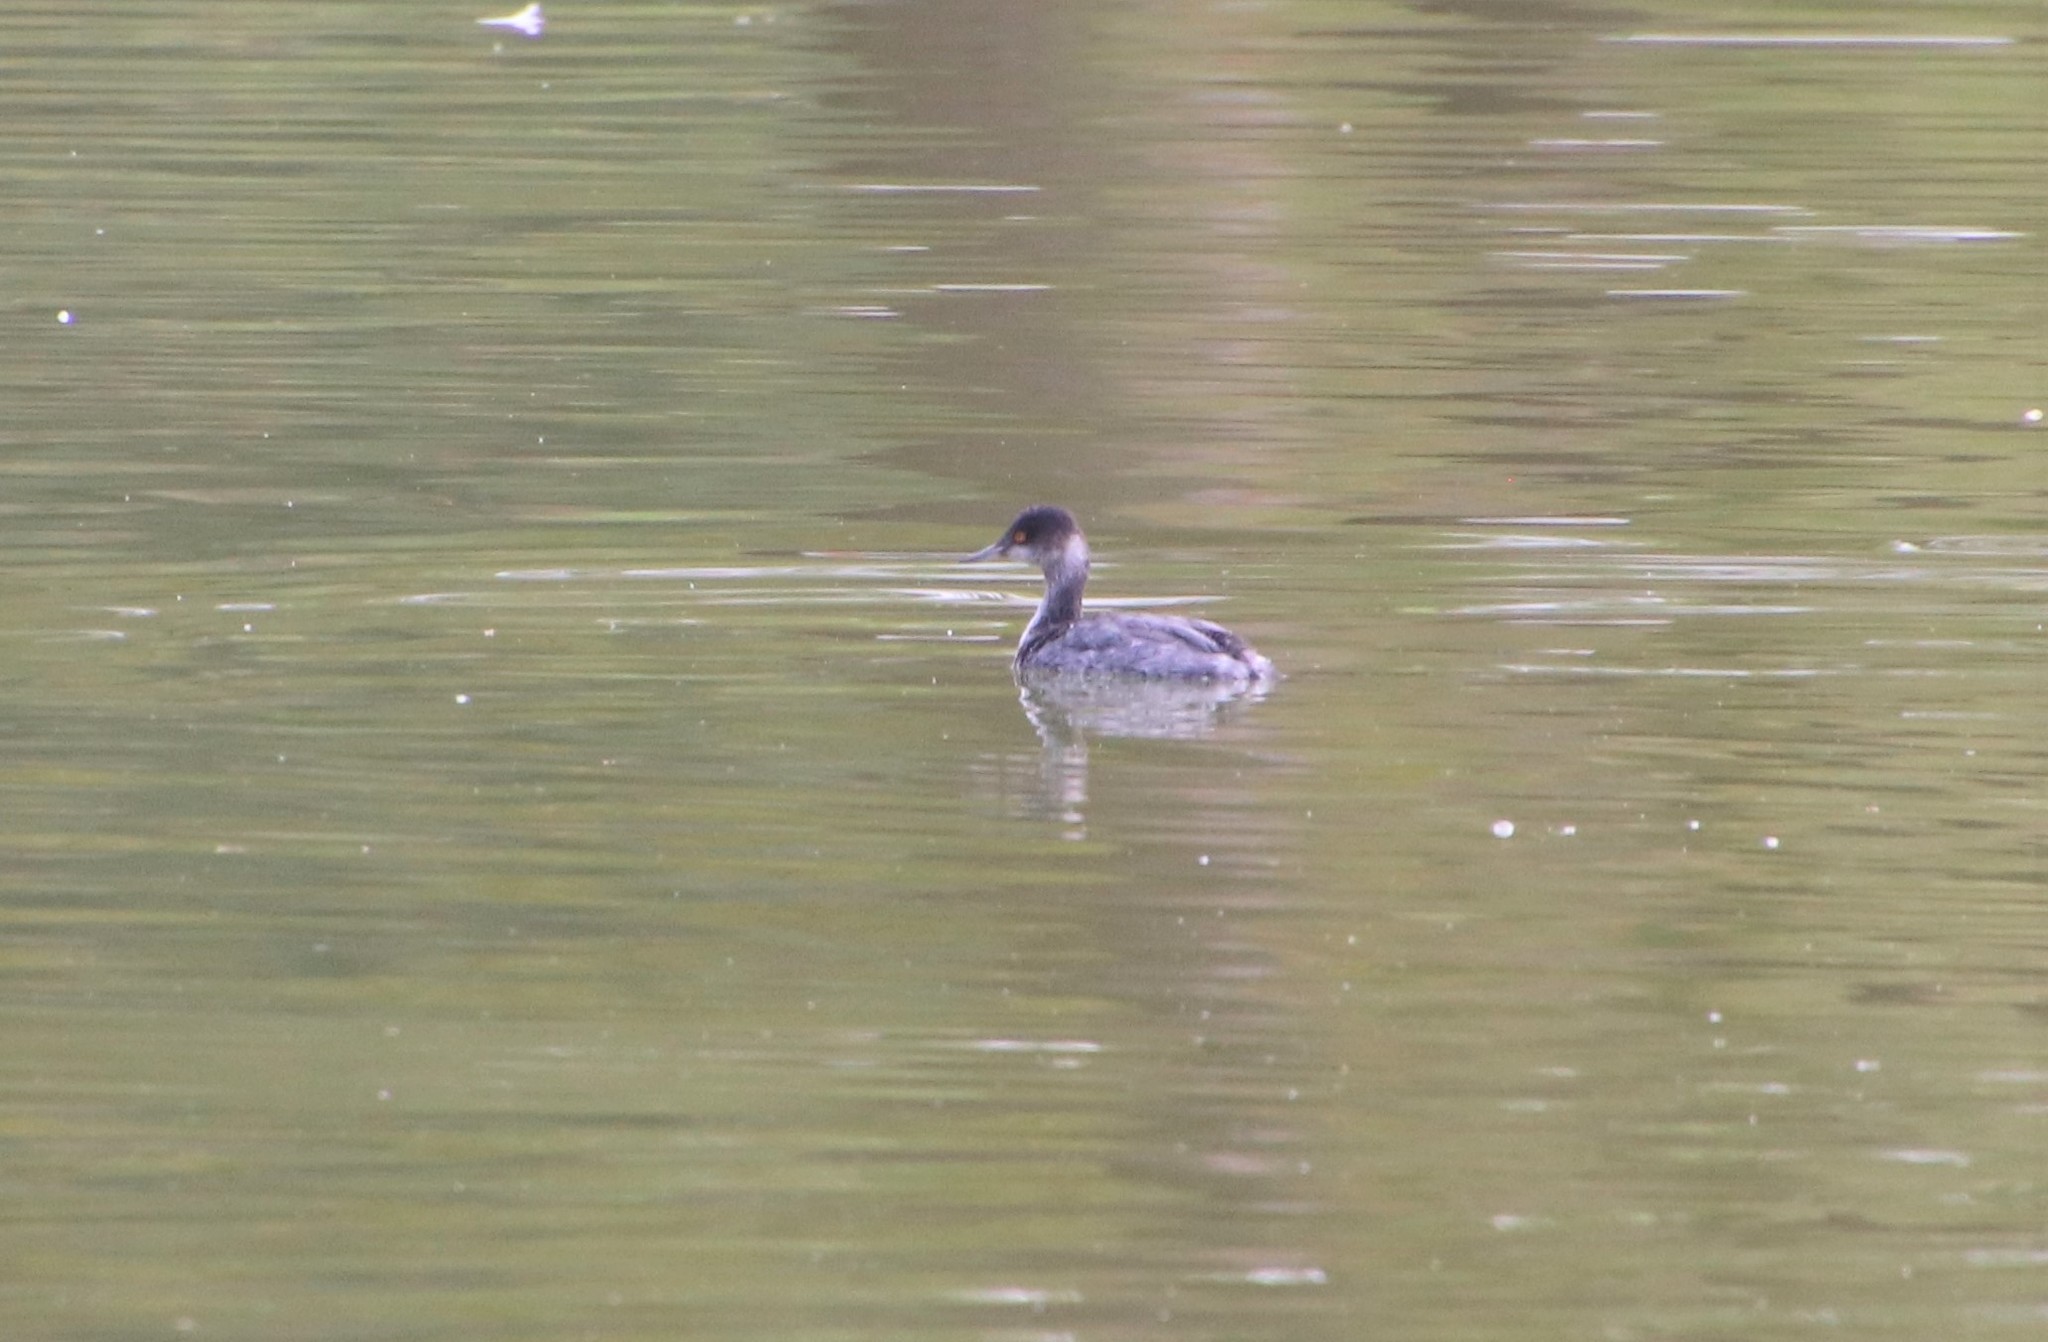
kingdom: Animalia
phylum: Chordata
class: Aves
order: Podicipediformes
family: Podicipedidae
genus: Podiceps
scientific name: Podiceps nigricollis
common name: Black-necked grebe
